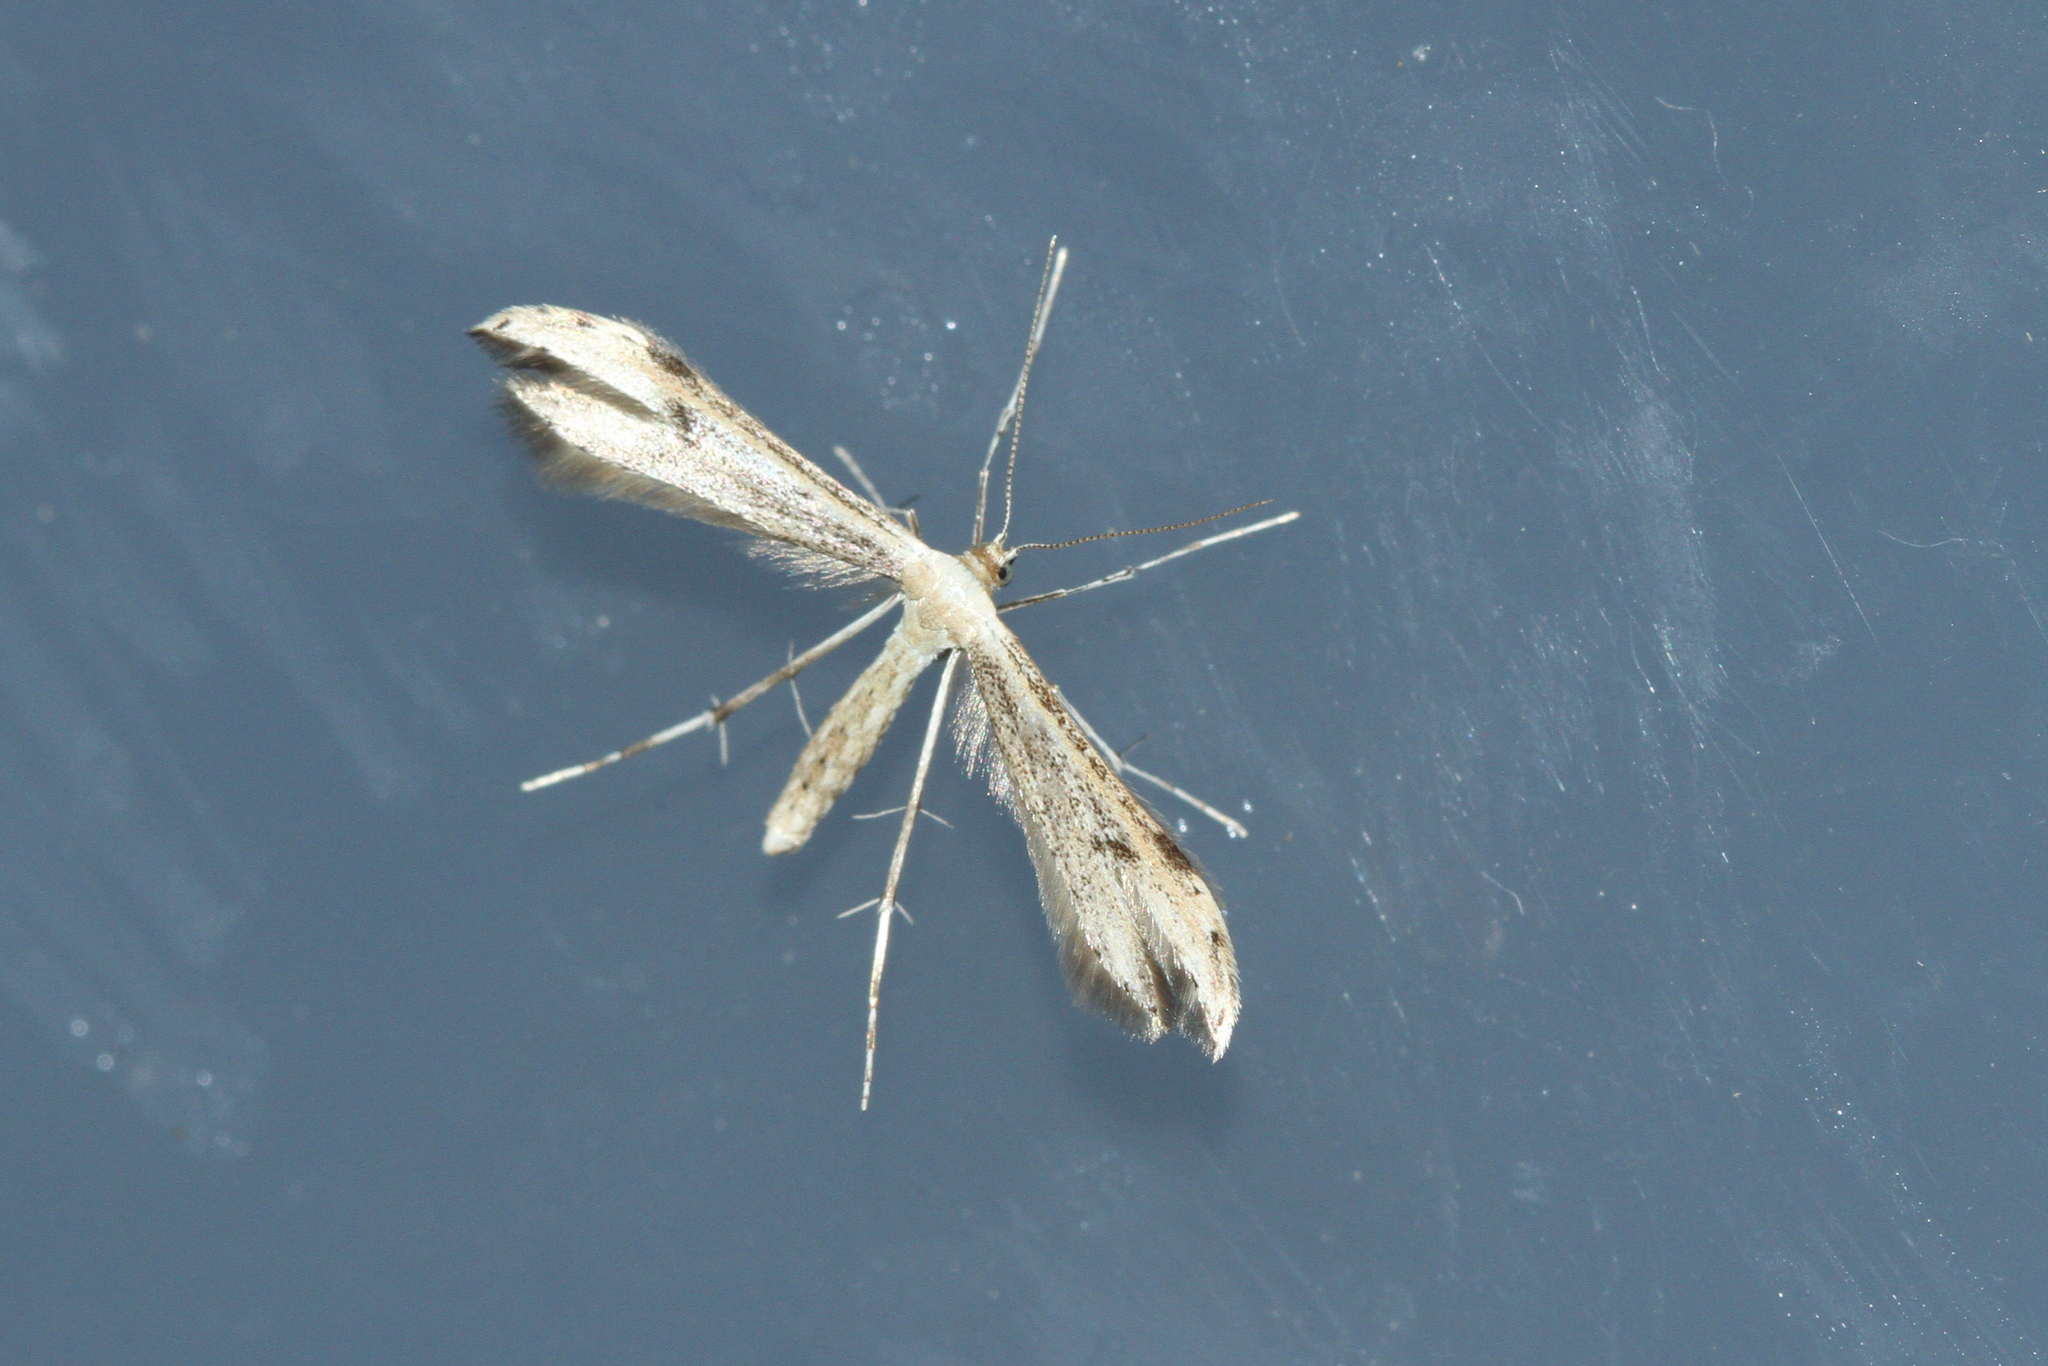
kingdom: Animalia
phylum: Arthropoda
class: Insecta
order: Lepidoptera
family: Pterophoridae
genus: Hellinsia
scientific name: Hellinsia lienigianus
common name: Wormwood plume
